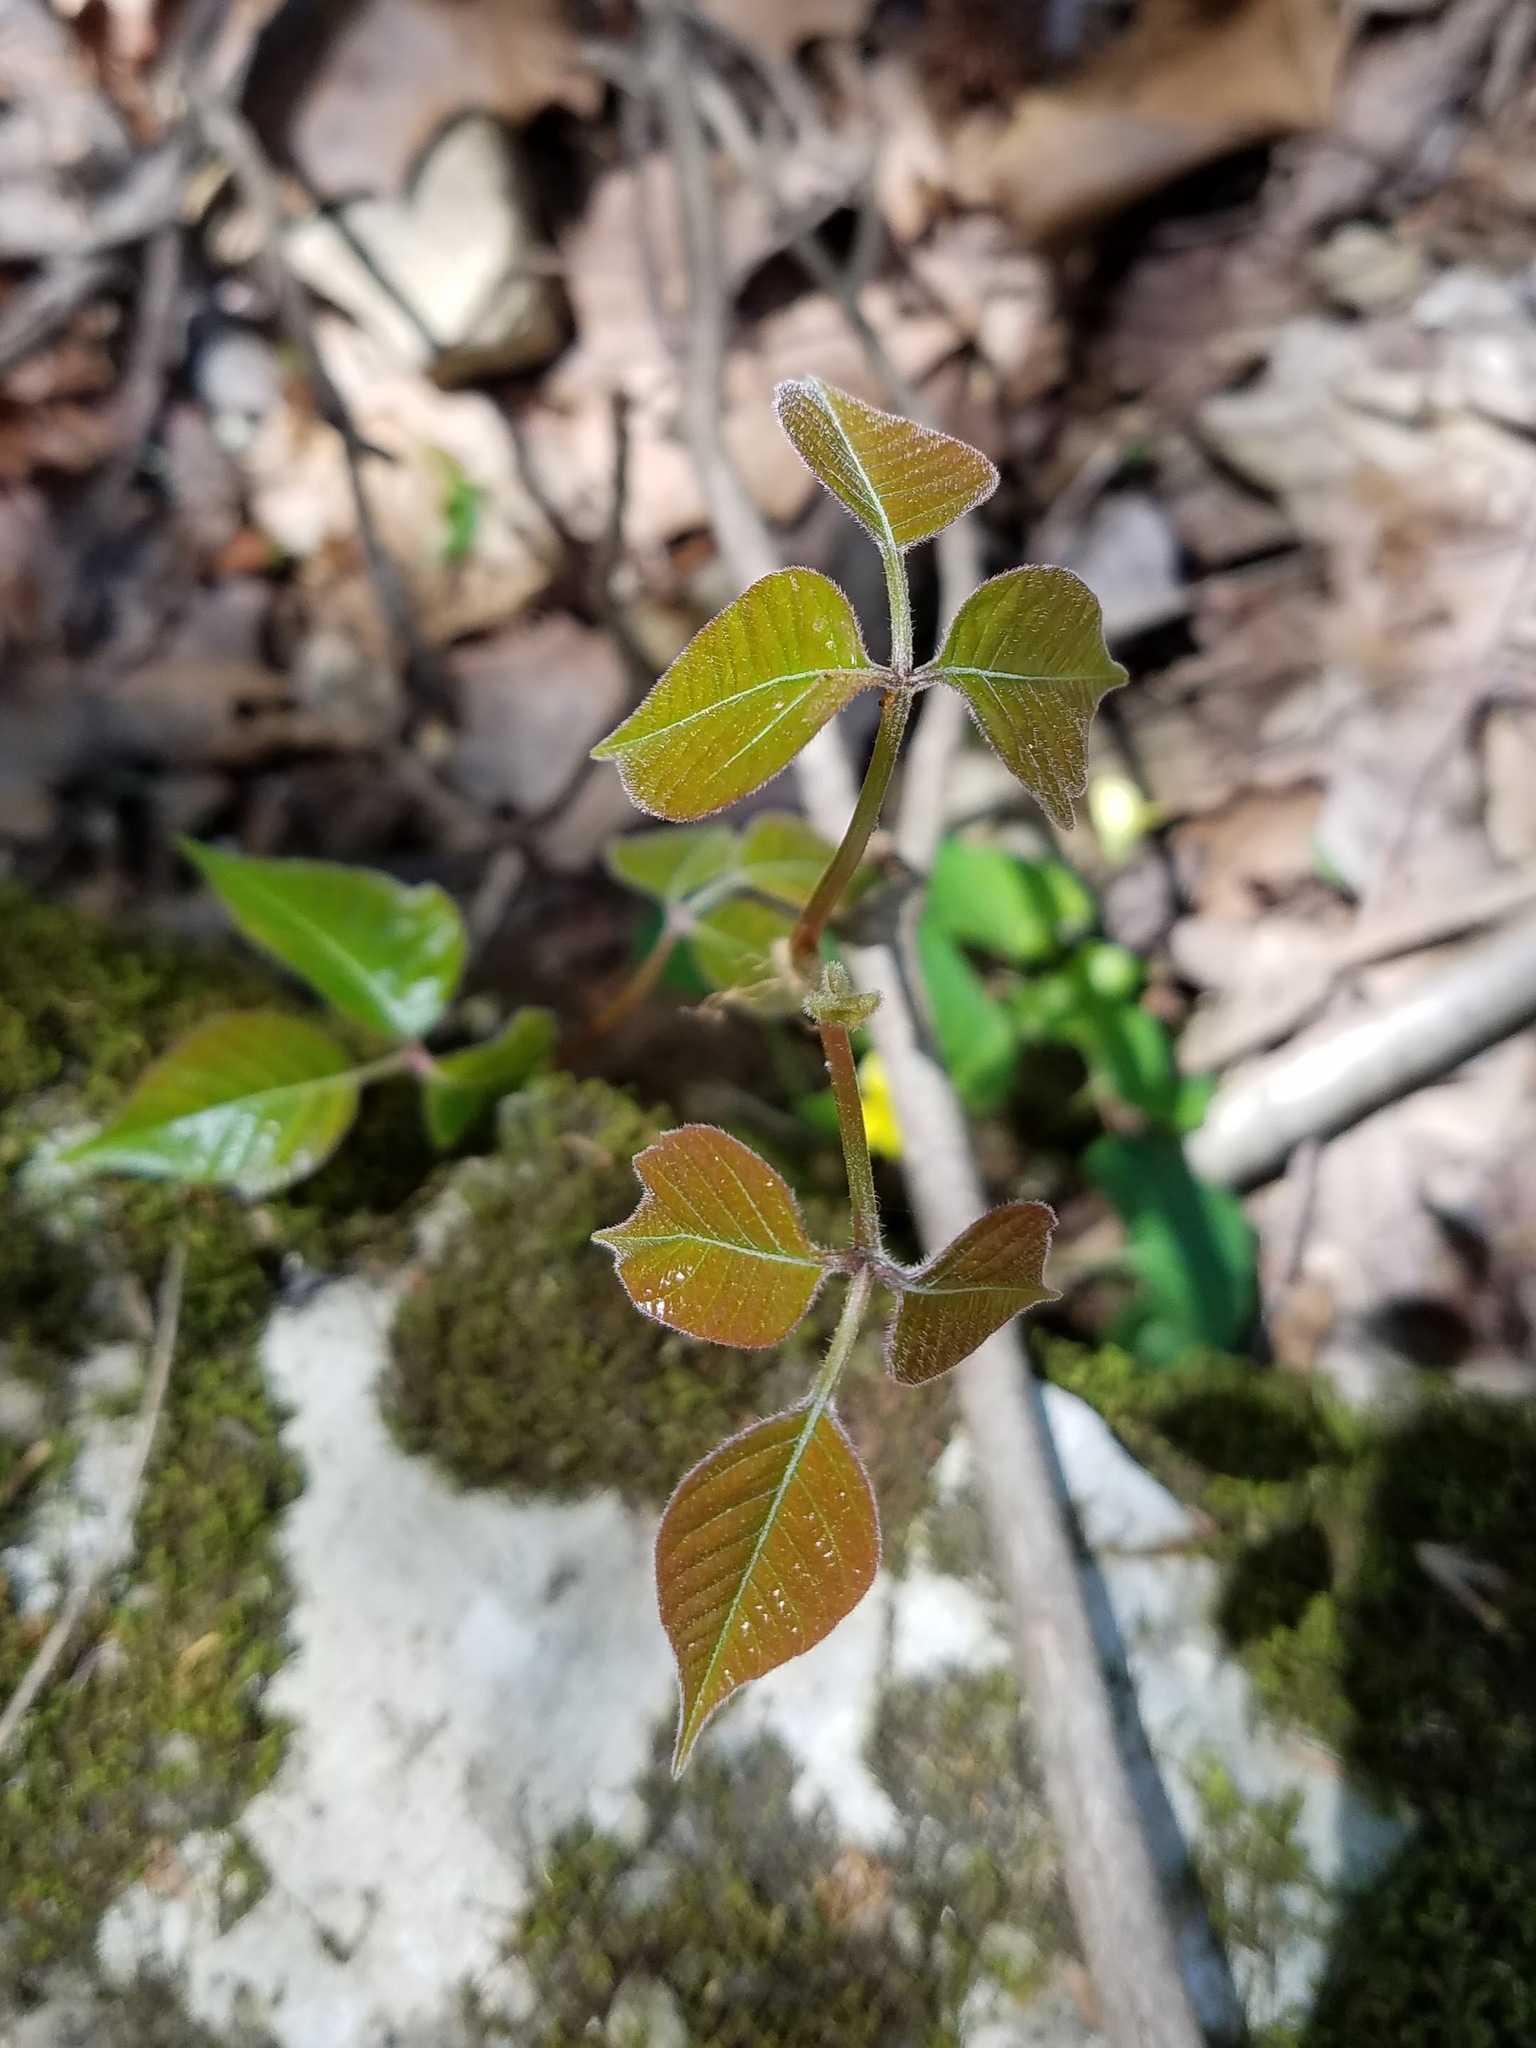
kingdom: Plantae
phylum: Tracheophyta
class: Magnoliopsida
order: Sapindales
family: Anacardiaceae
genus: Toxicodendron
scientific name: Toxicodendron radicans
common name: Poison ivy
